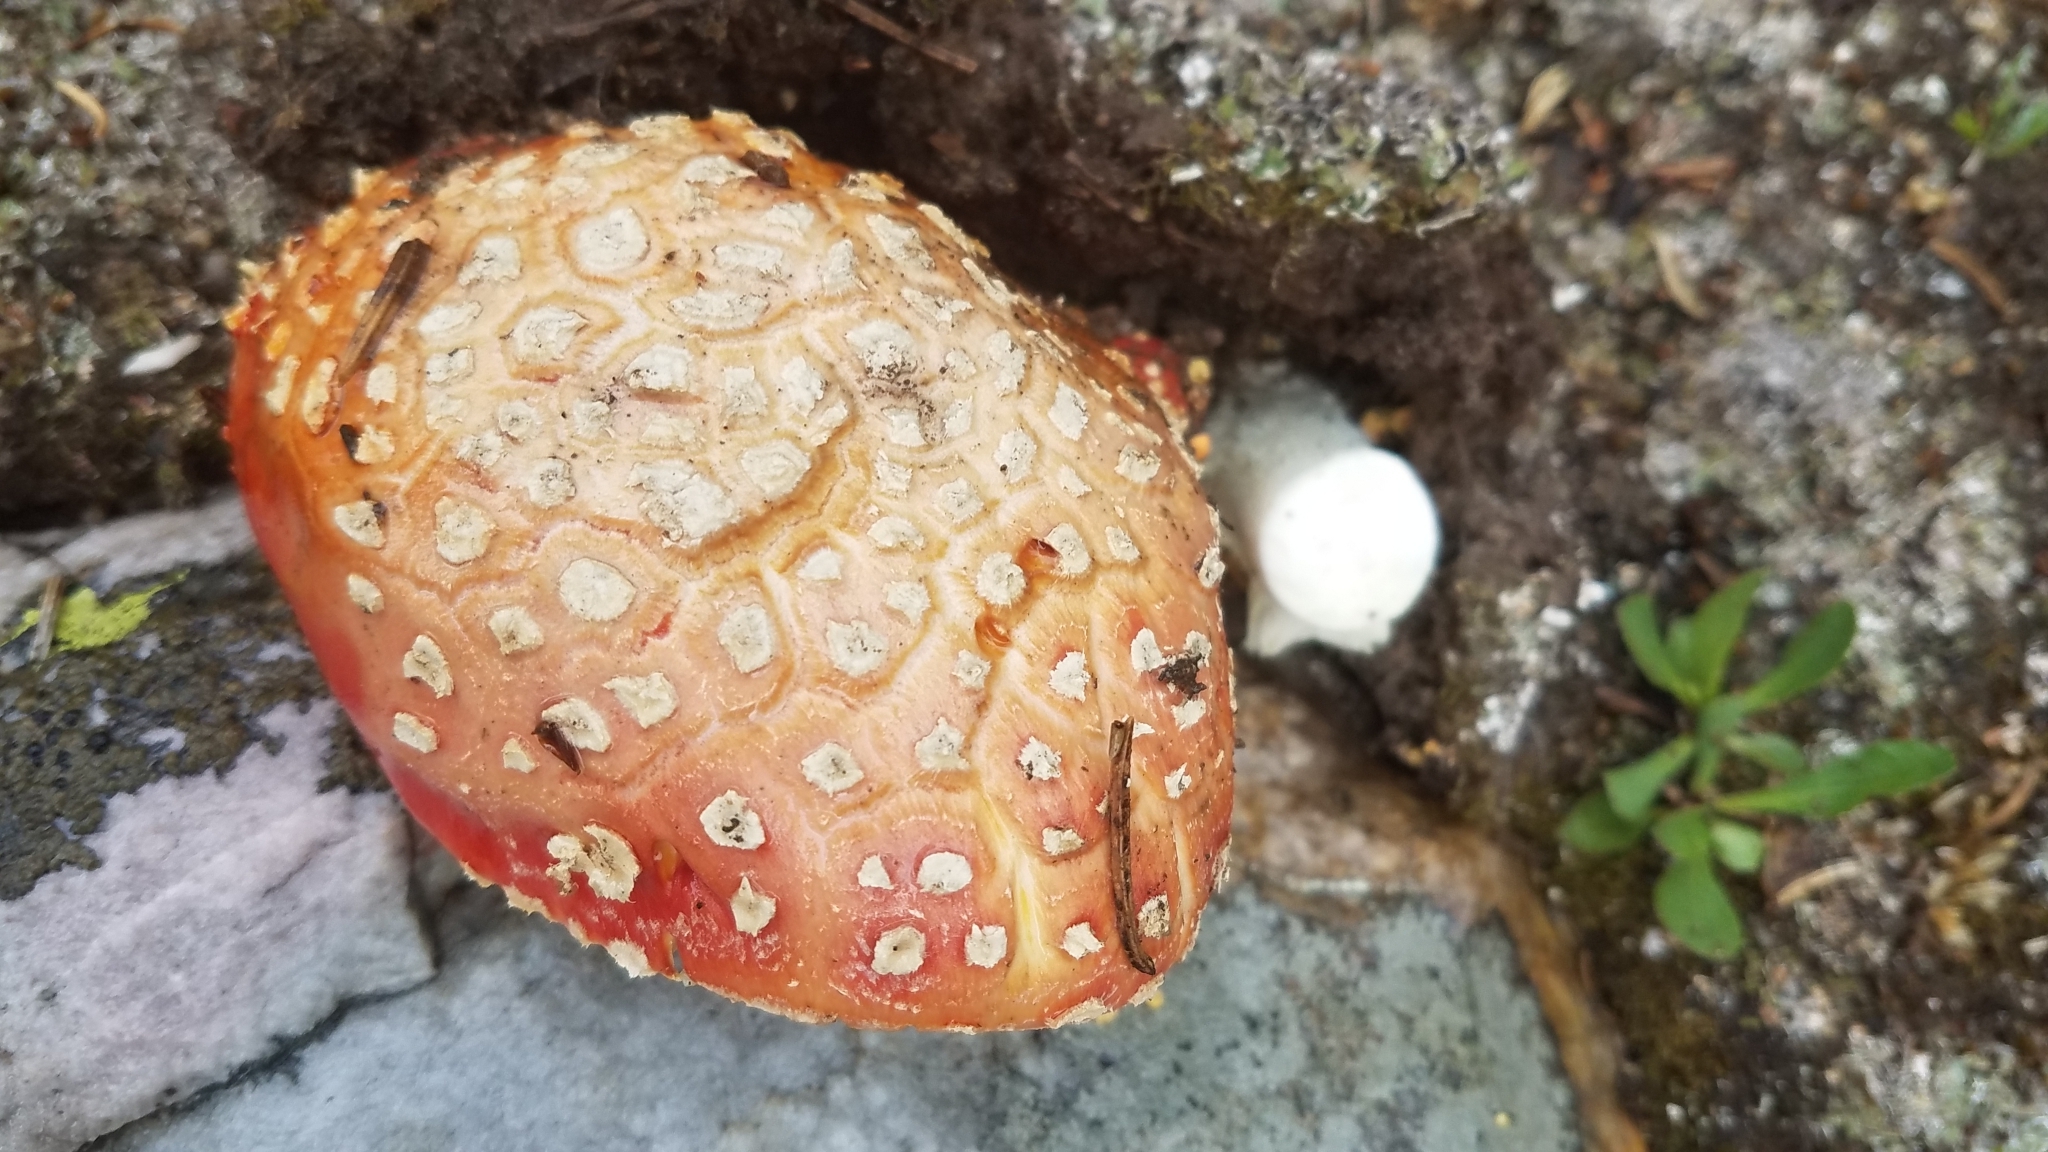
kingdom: Fungi
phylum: Basidiomycota
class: Agaricomycetes
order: Agaricales
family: Amanitaceae
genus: Amanita
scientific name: Amanita muscaria
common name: Fly agaric
